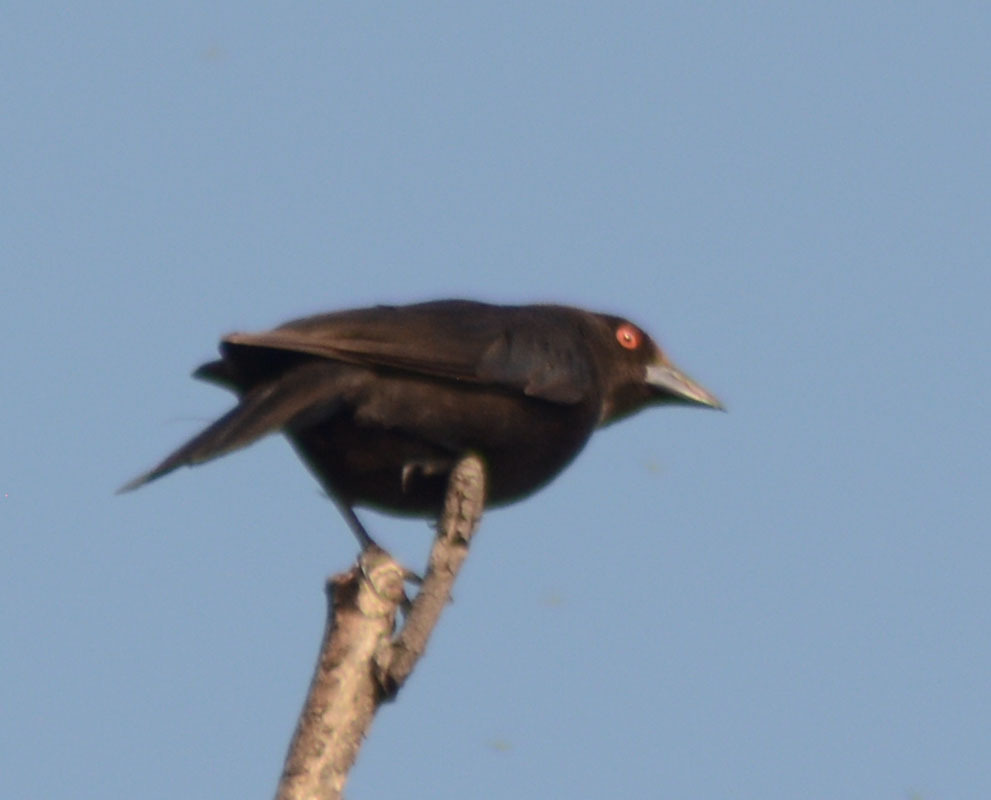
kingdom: Animalia
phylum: Chordata
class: Aves
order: Passeriformes
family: Icteridae
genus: Molothrus
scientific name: Molothrus aeneus
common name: Bronzed cowbird
